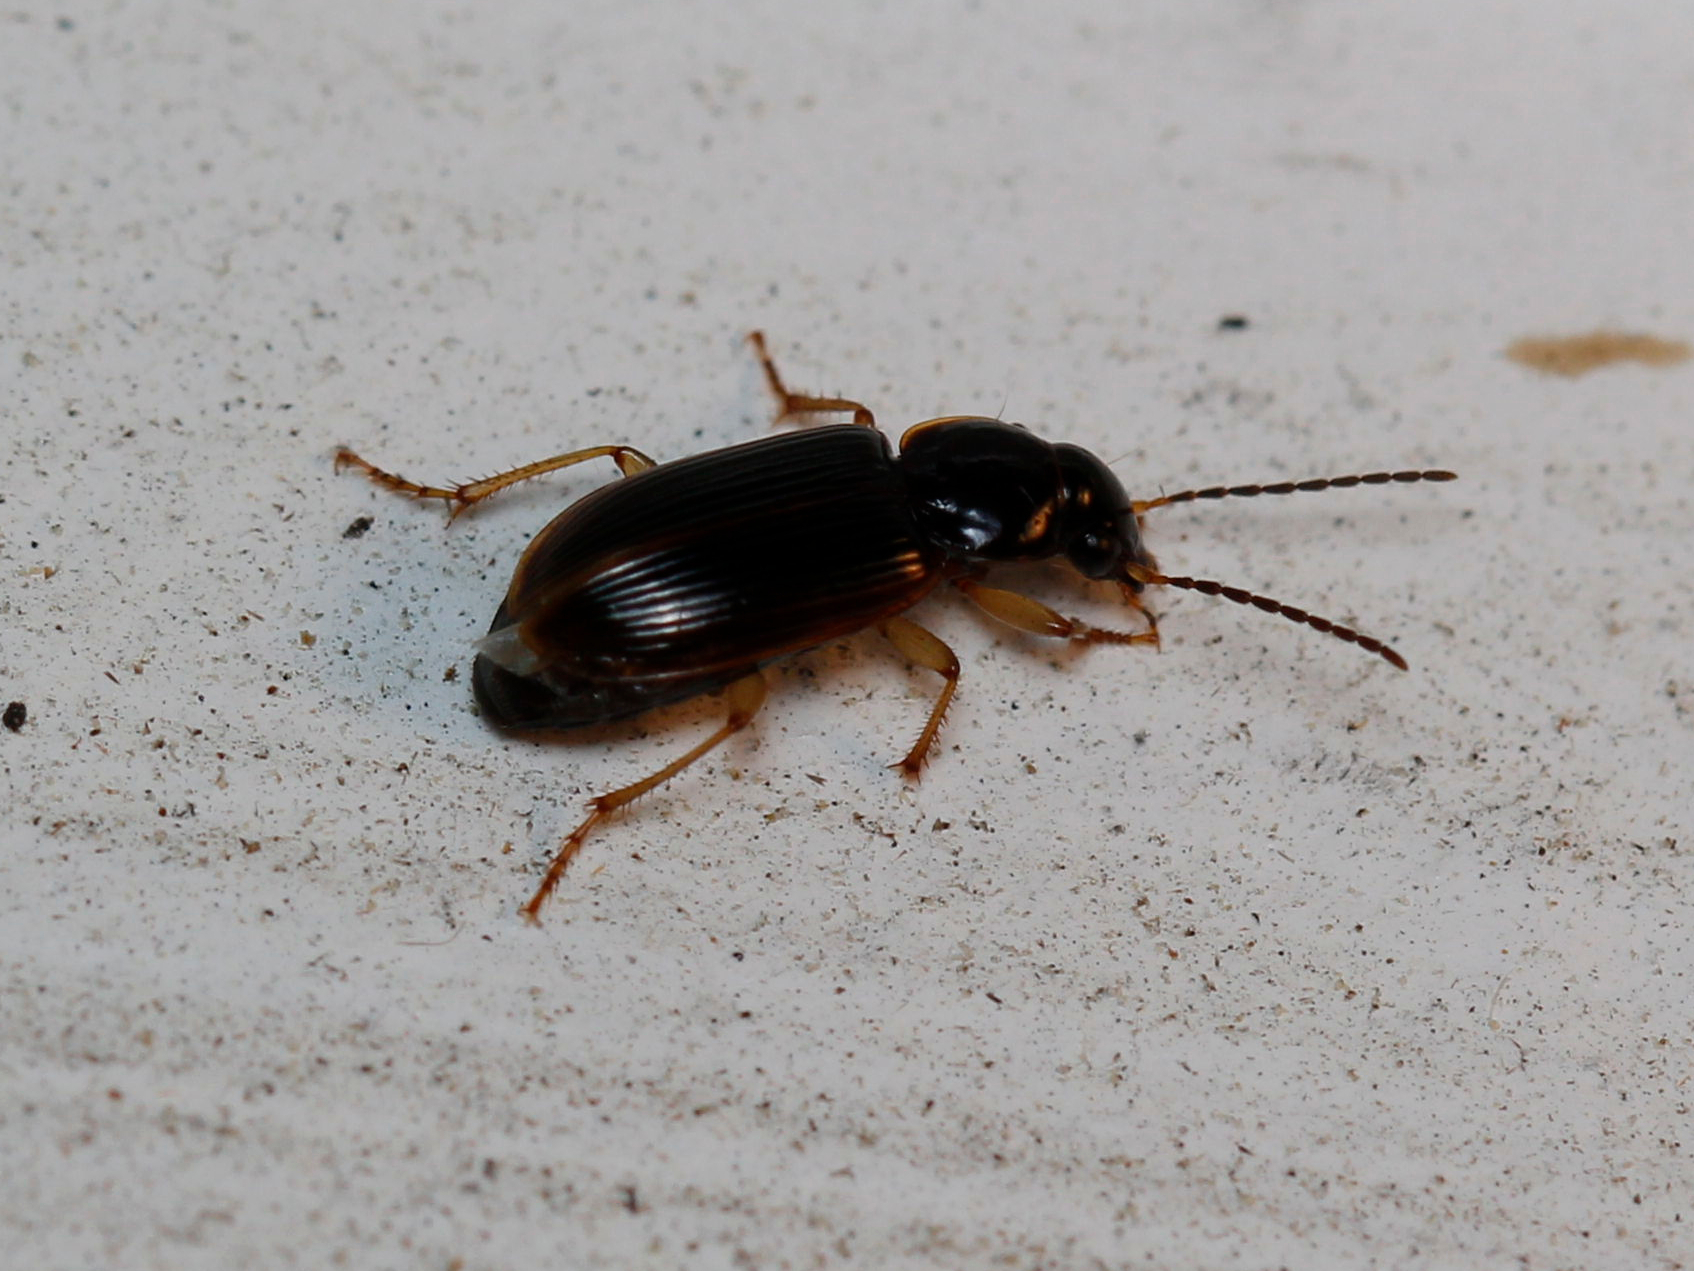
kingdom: Animalia
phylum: Arthropoda
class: Insecta
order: Coleoptera
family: Chrysomelidae
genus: Galerucella
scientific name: Galerucella nymphaeae
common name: Leaf beetle
